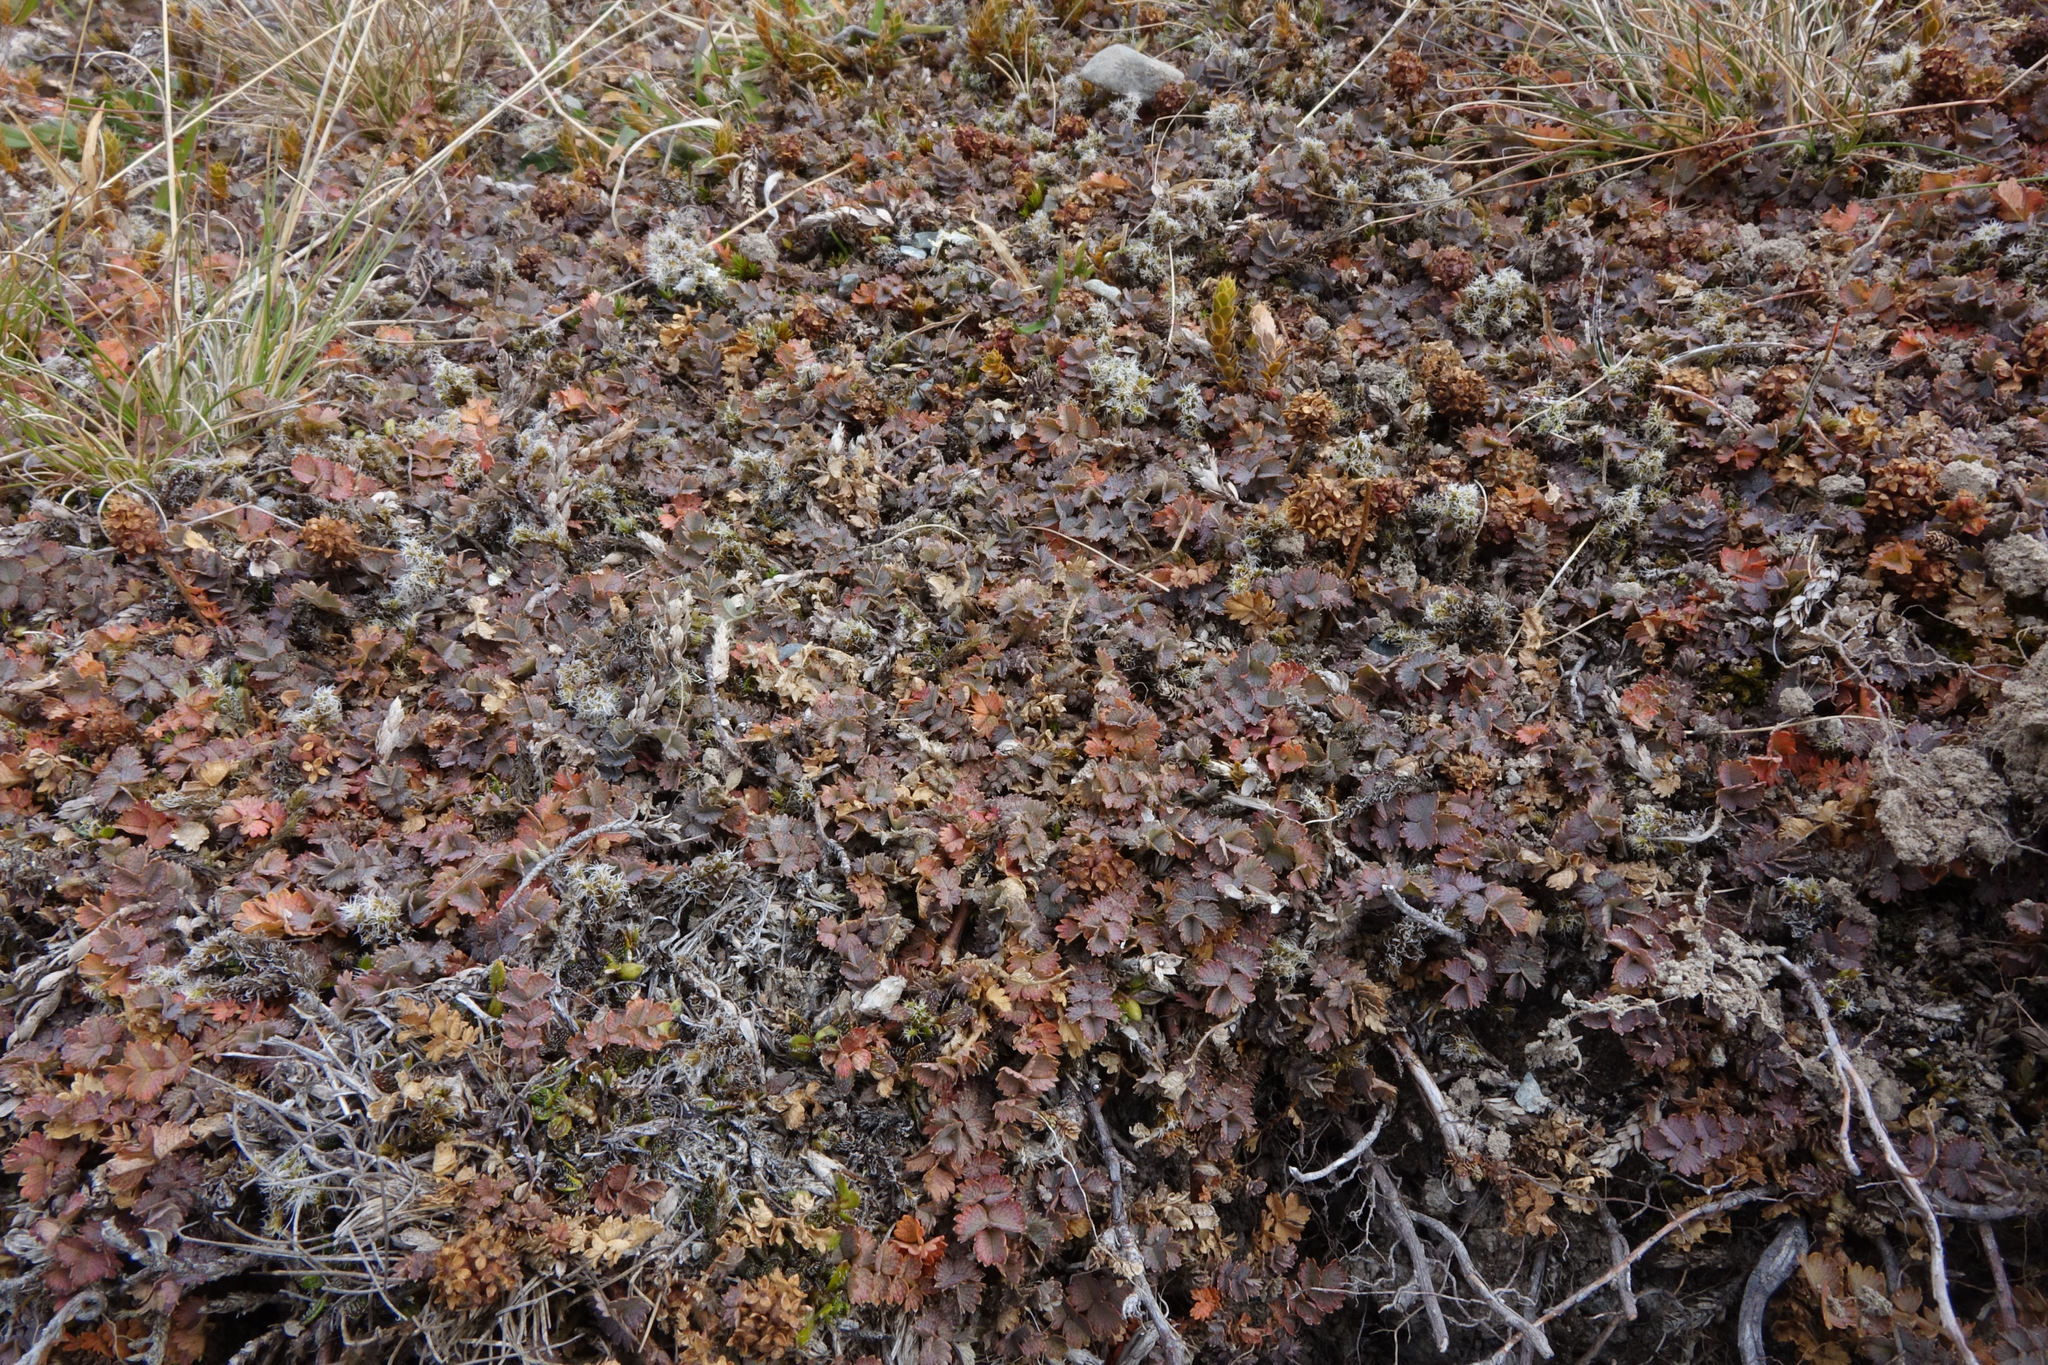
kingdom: Plantae
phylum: Tracheophyta
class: Magnoliopsida
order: Rosales
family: Rosaceae
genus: Acaena
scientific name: Acaena inermis
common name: Spineless acaena
